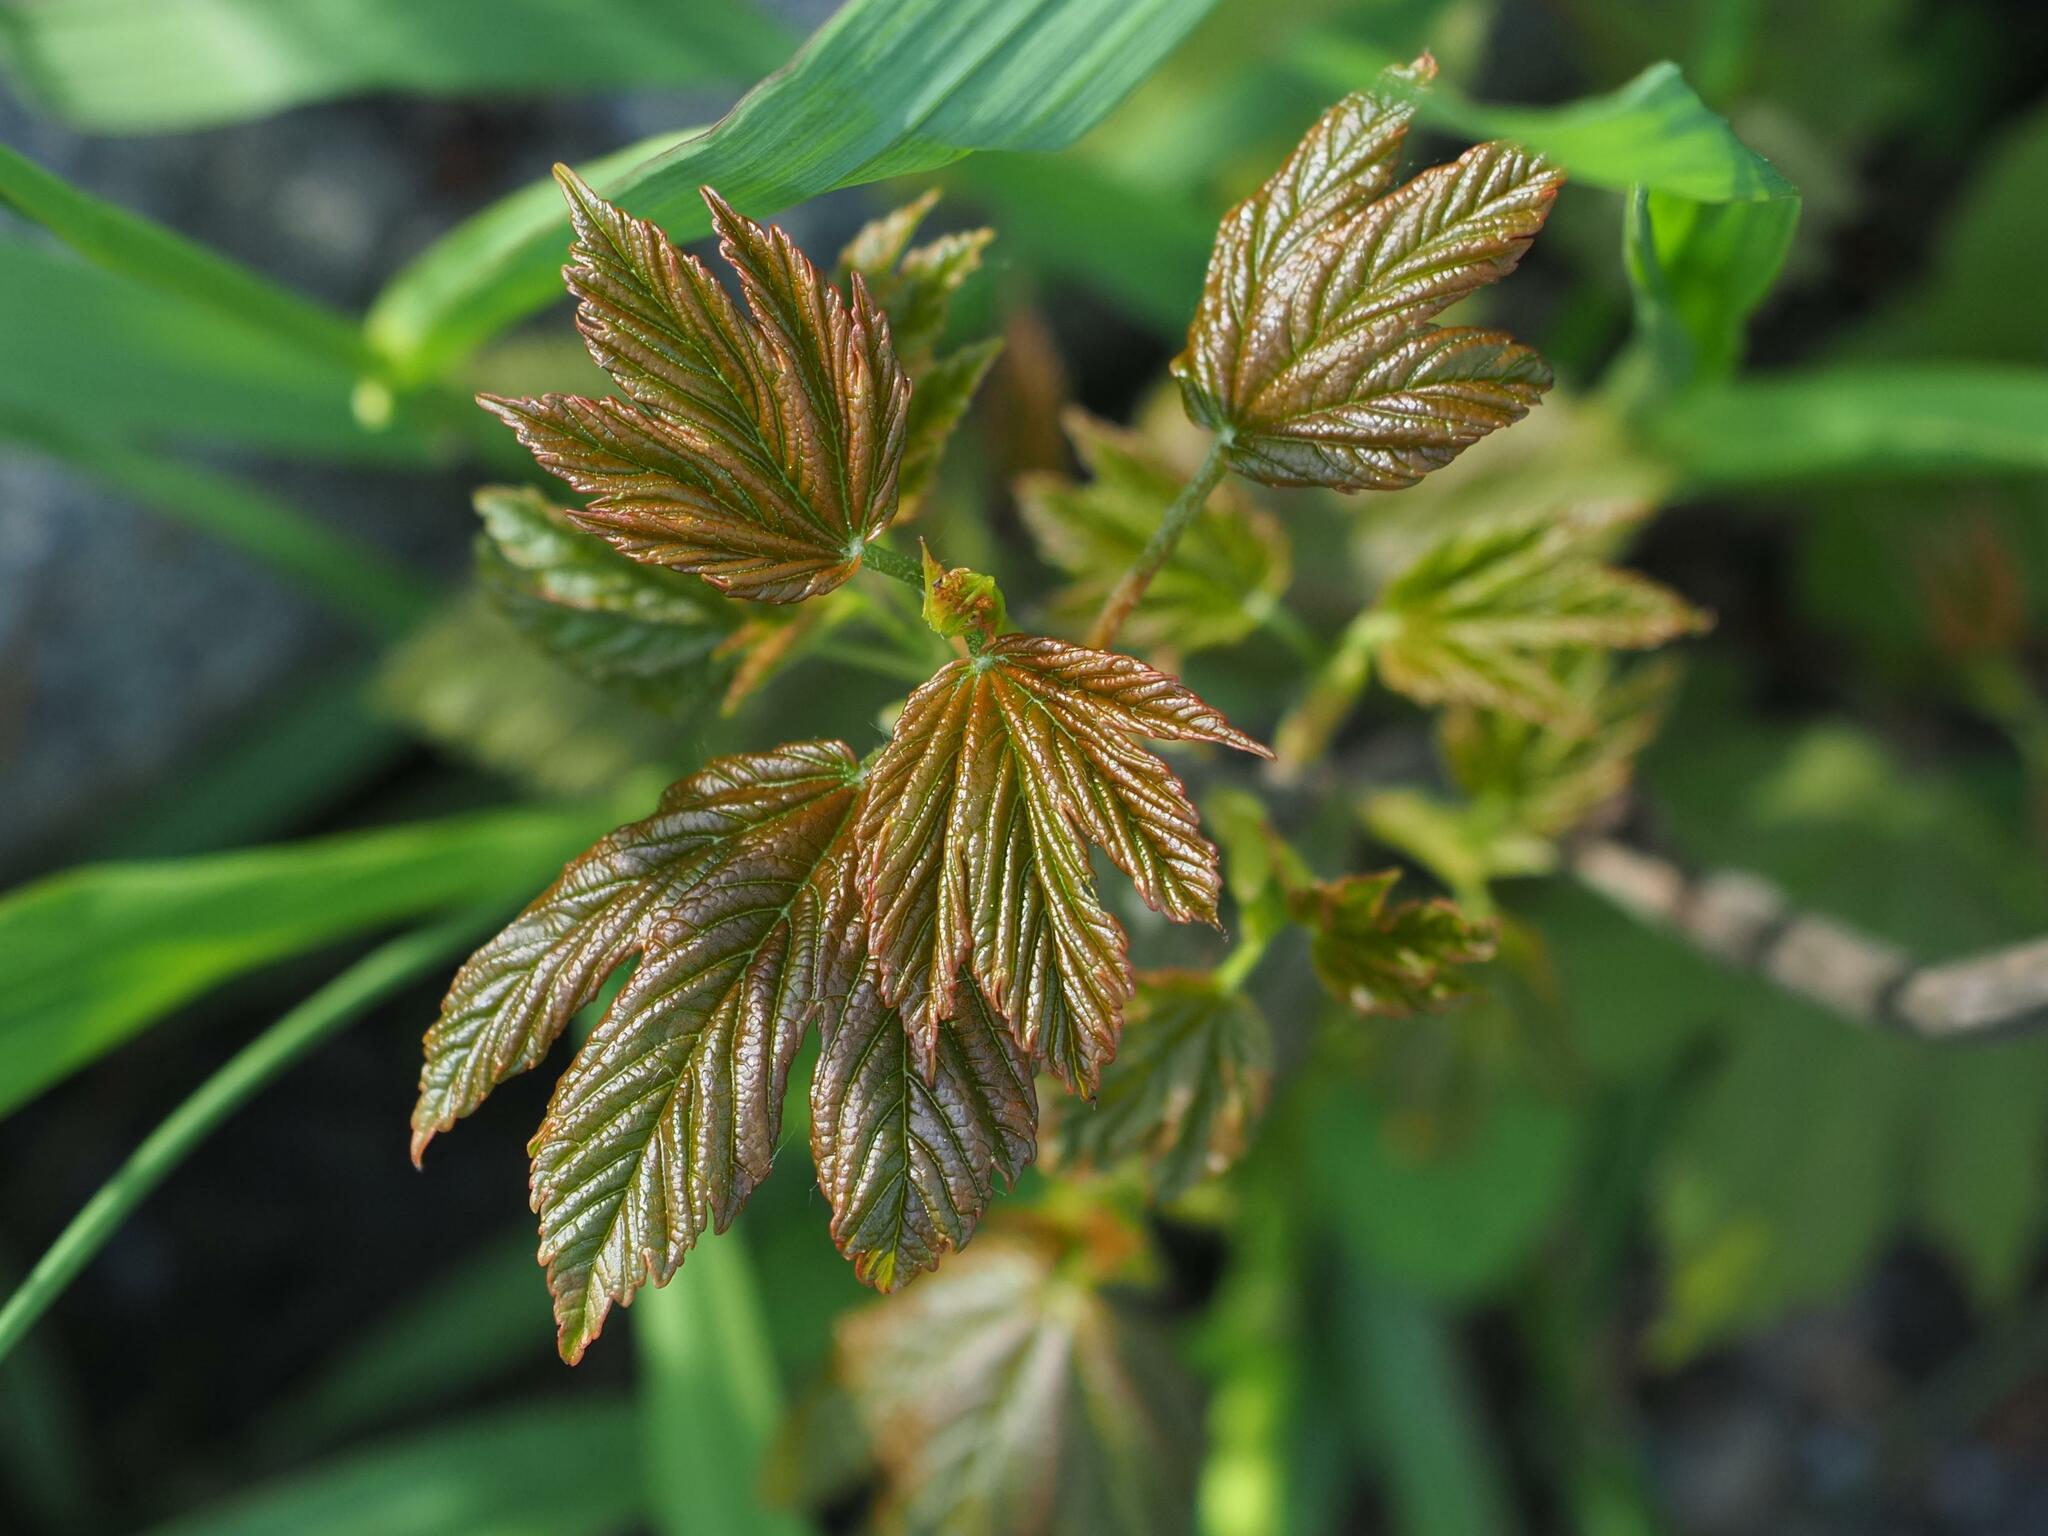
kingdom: Plantae
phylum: Tracheophyta
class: Magnoliopsida
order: Sapindales
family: Sapindaceae
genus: Acer
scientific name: Acer pseudoplatanus
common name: Sycamore
